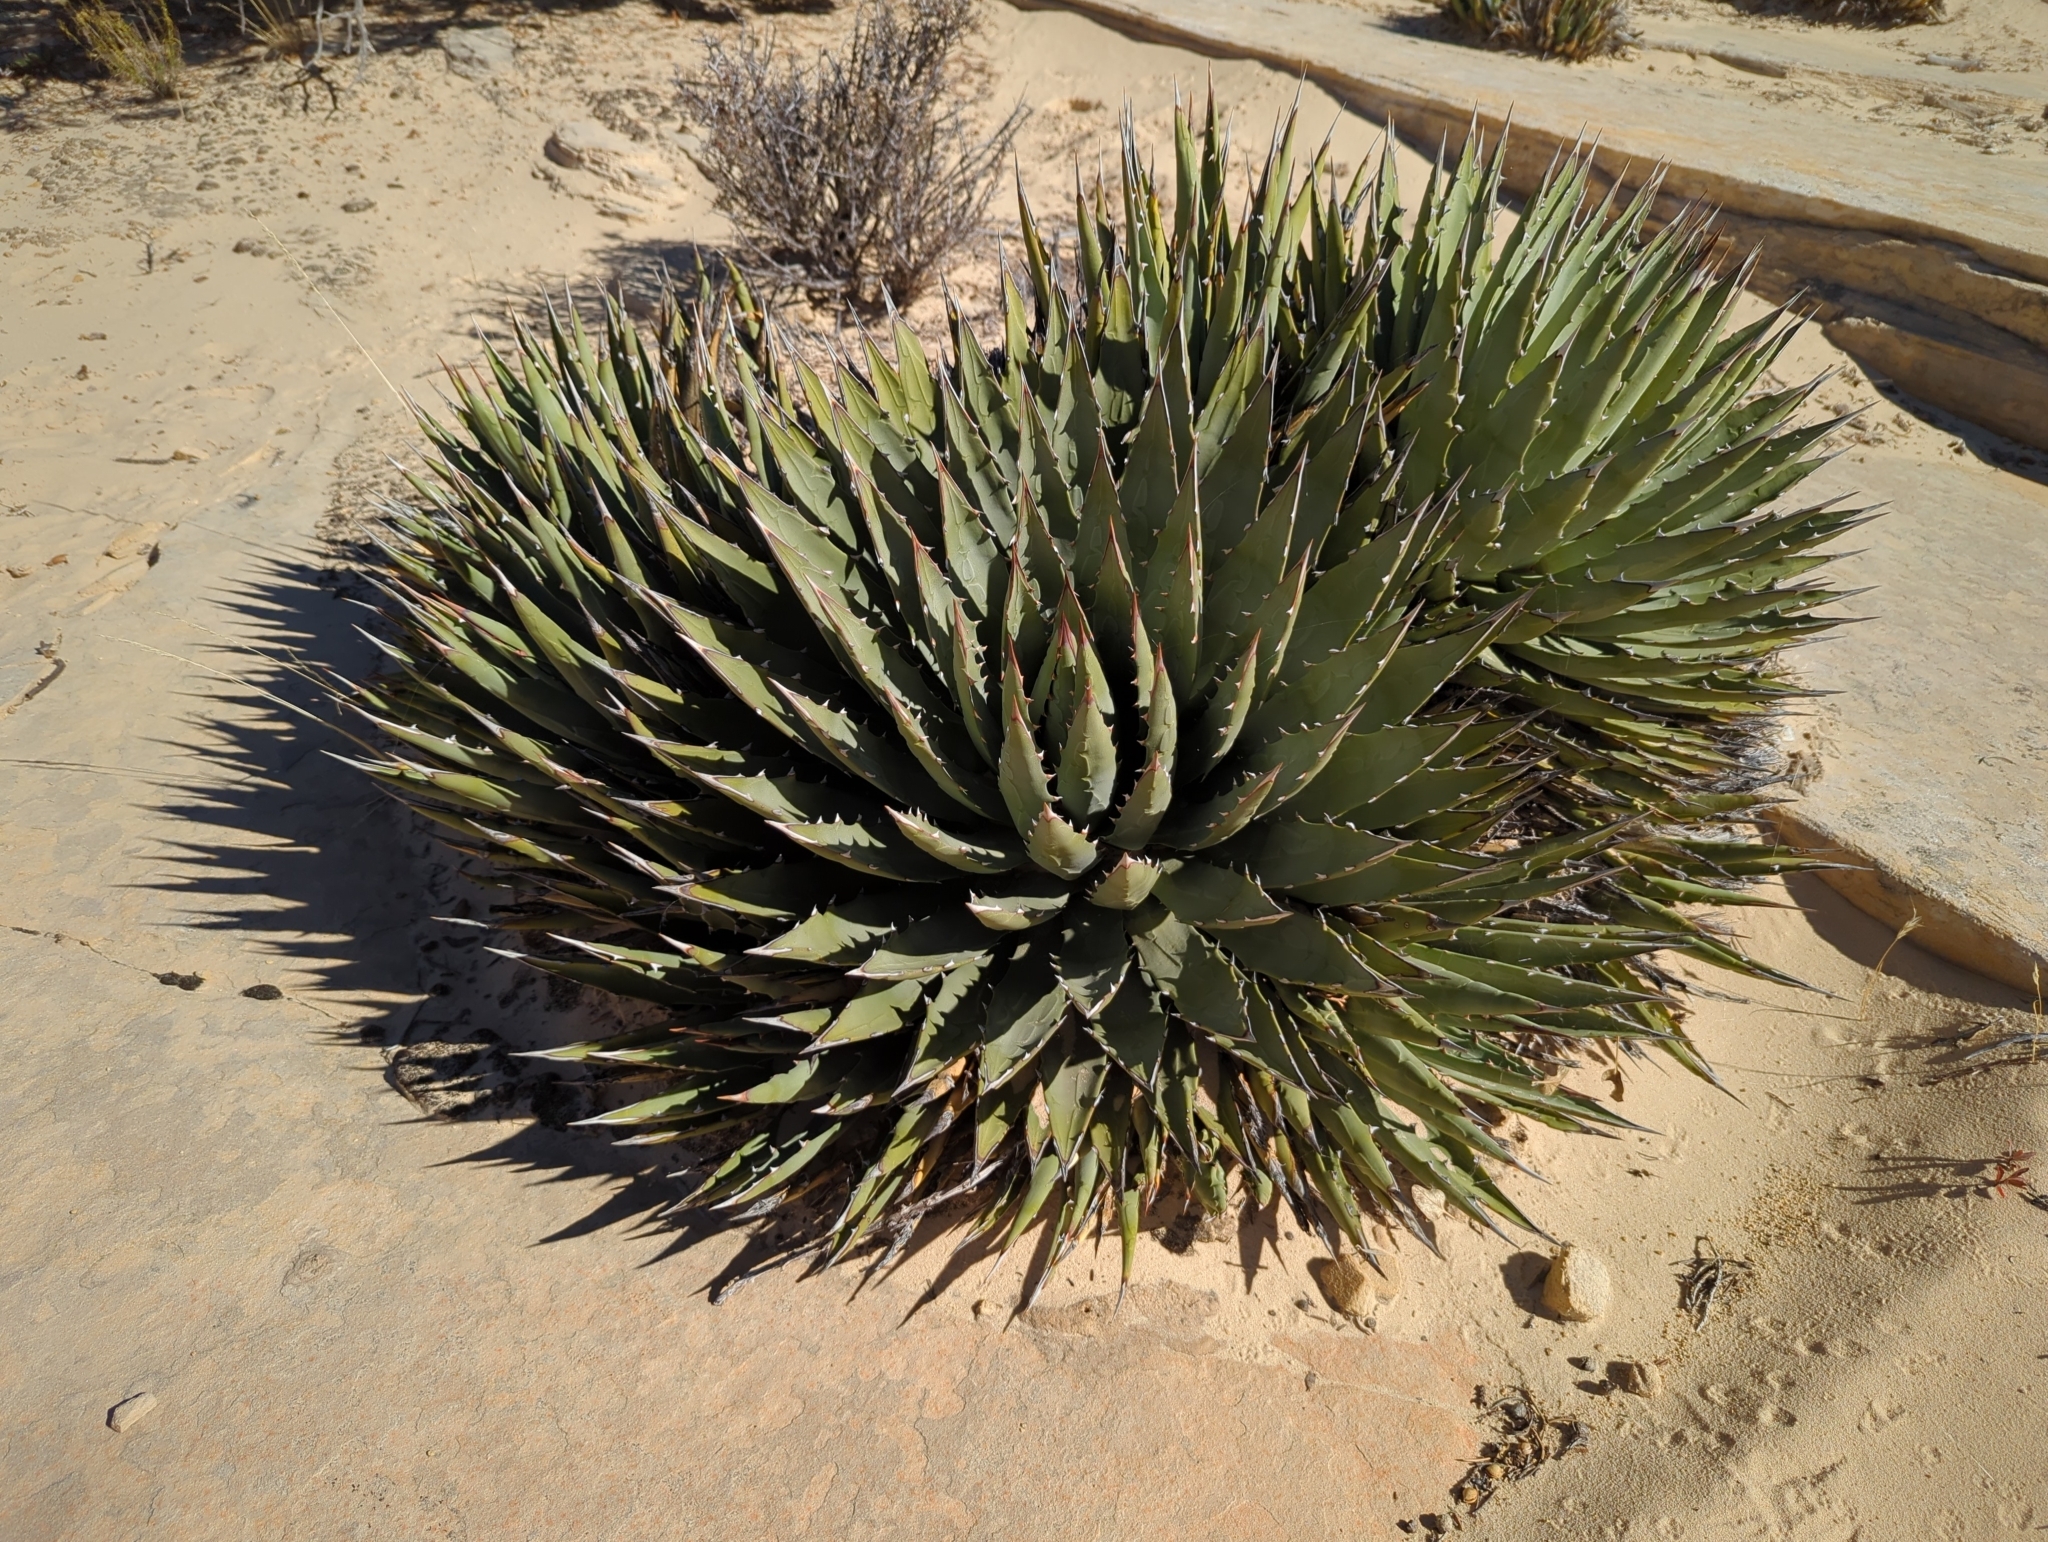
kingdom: Plantae
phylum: Tracheophyta
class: Liliopsida
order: Asparagales
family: Asparagaceae
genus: Agave
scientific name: Agave utahensis
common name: Utah agave
